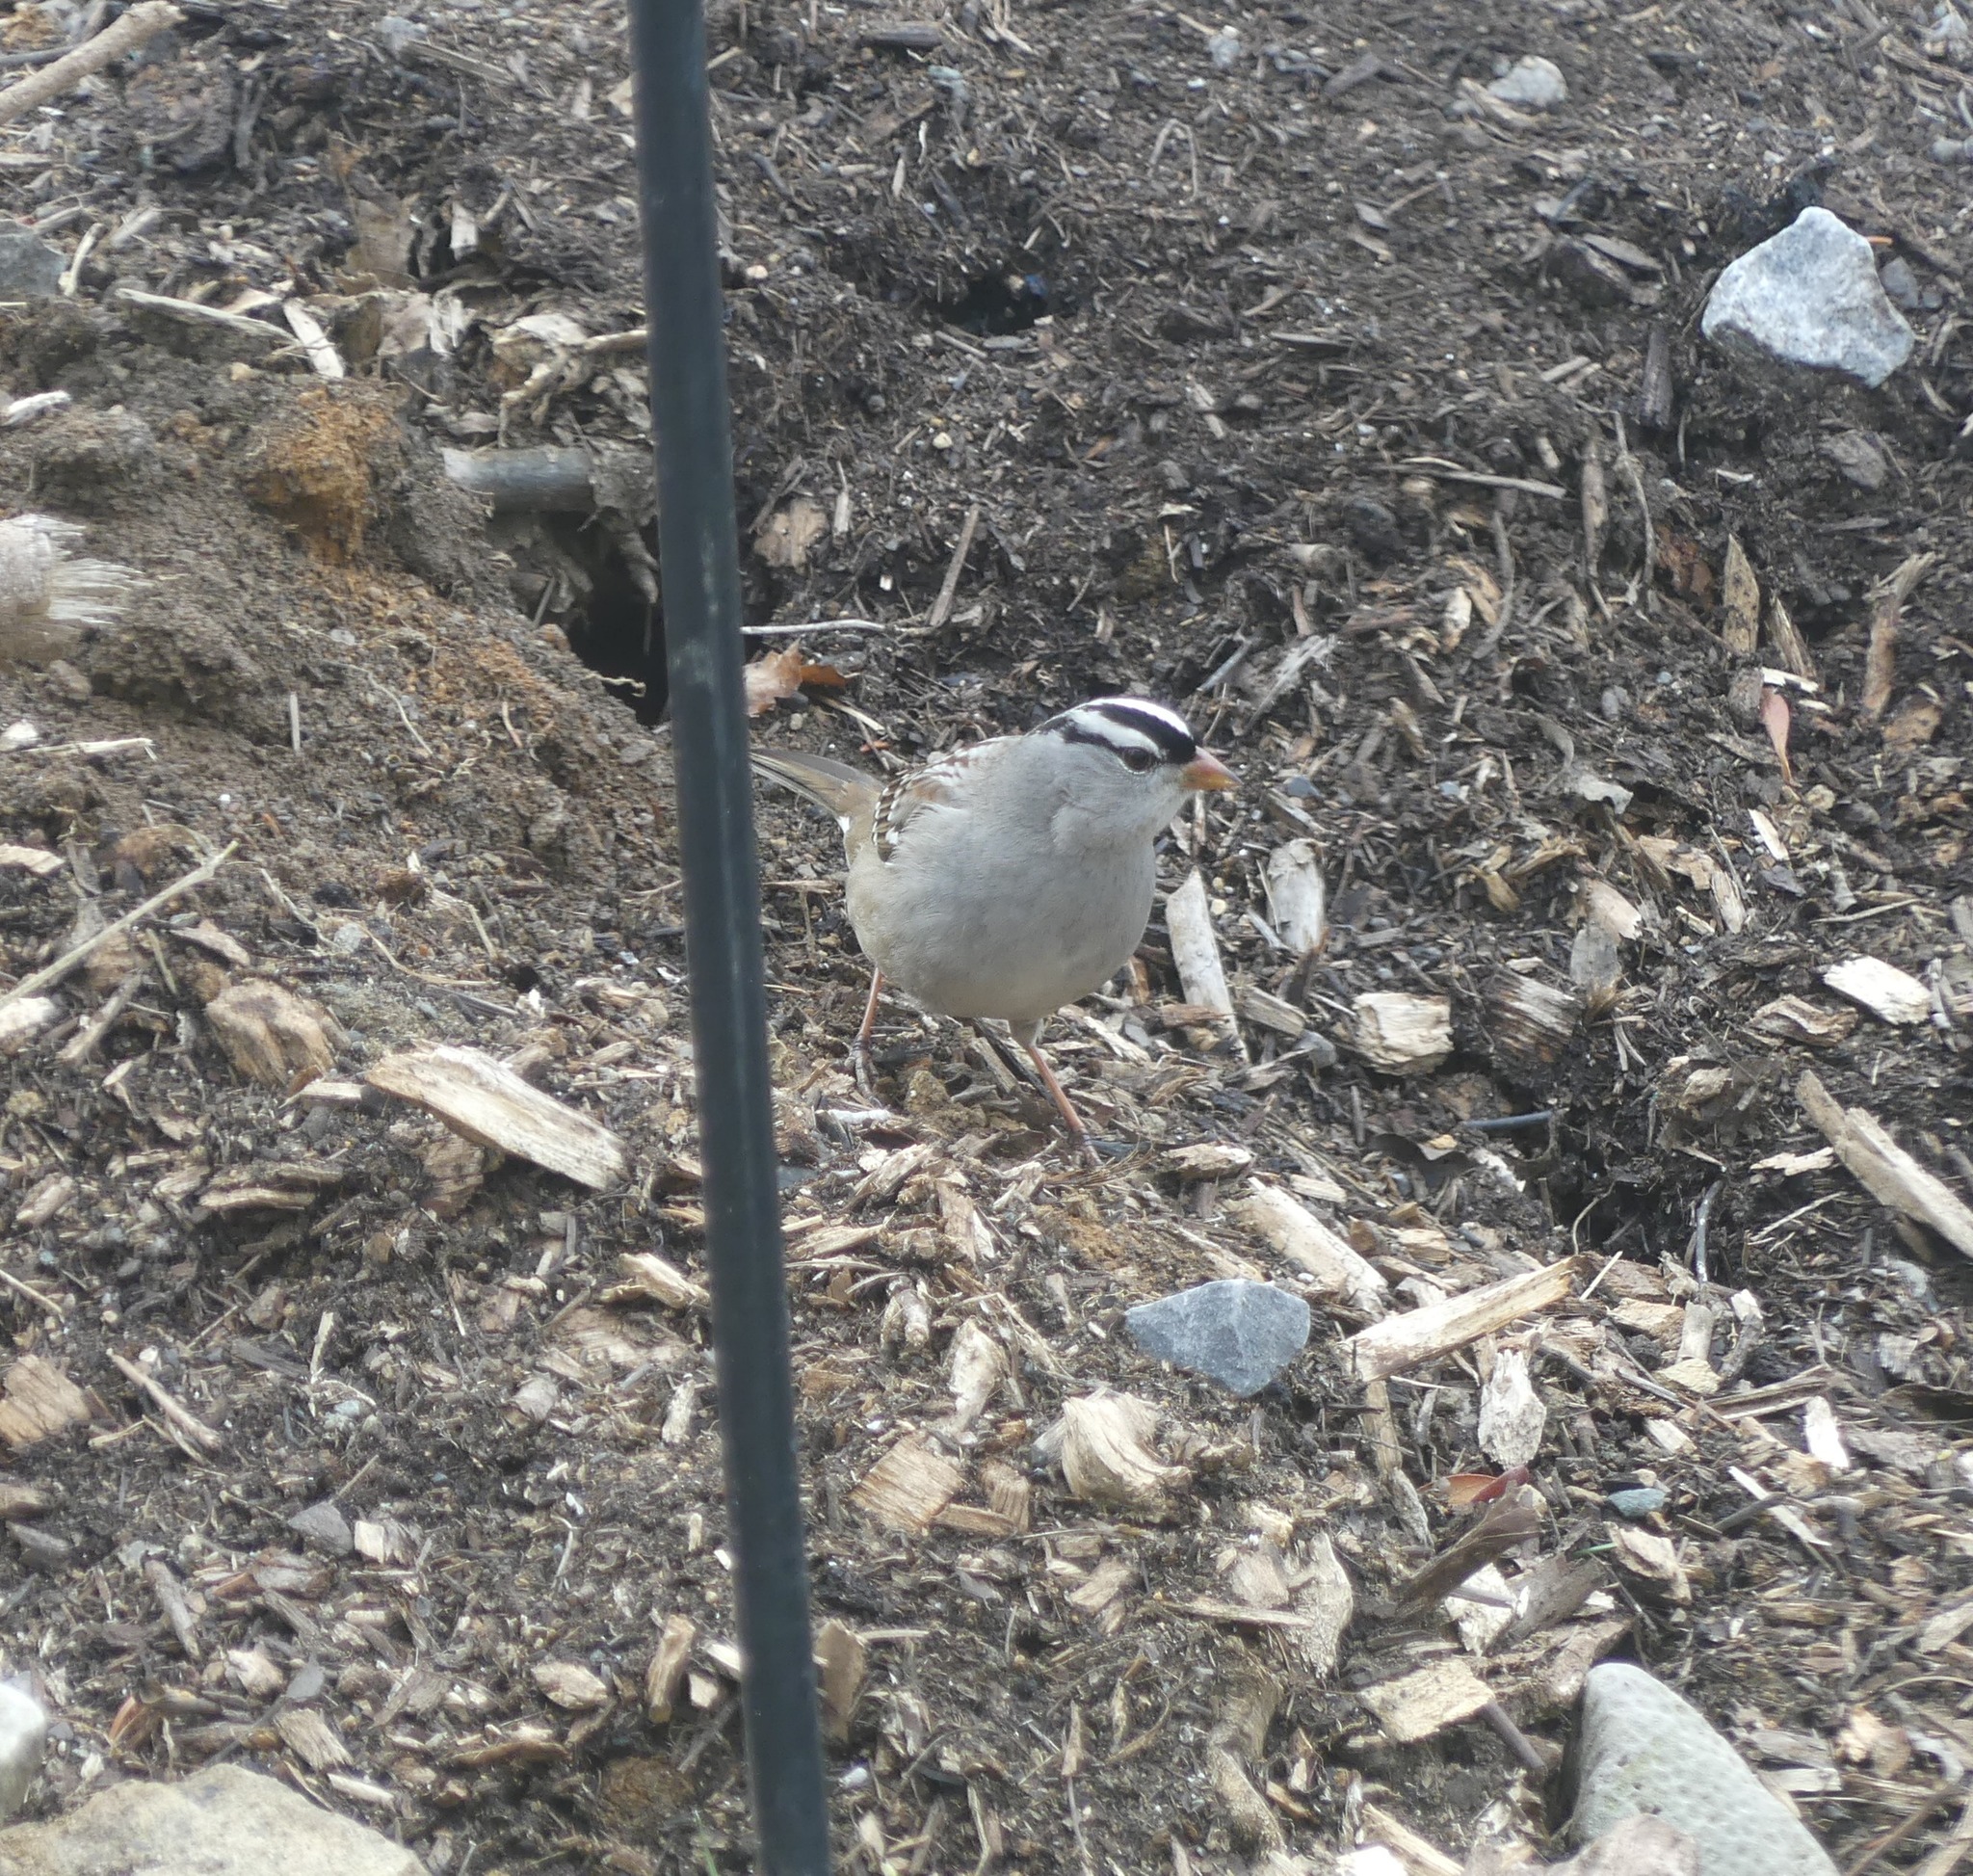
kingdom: Animalia
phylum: Chordata
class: Aves
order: Passeriformes
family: Passerellidae
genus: Zonotrichia
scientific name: Zonotrichia leucophrys
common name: White-crowned sparrow
